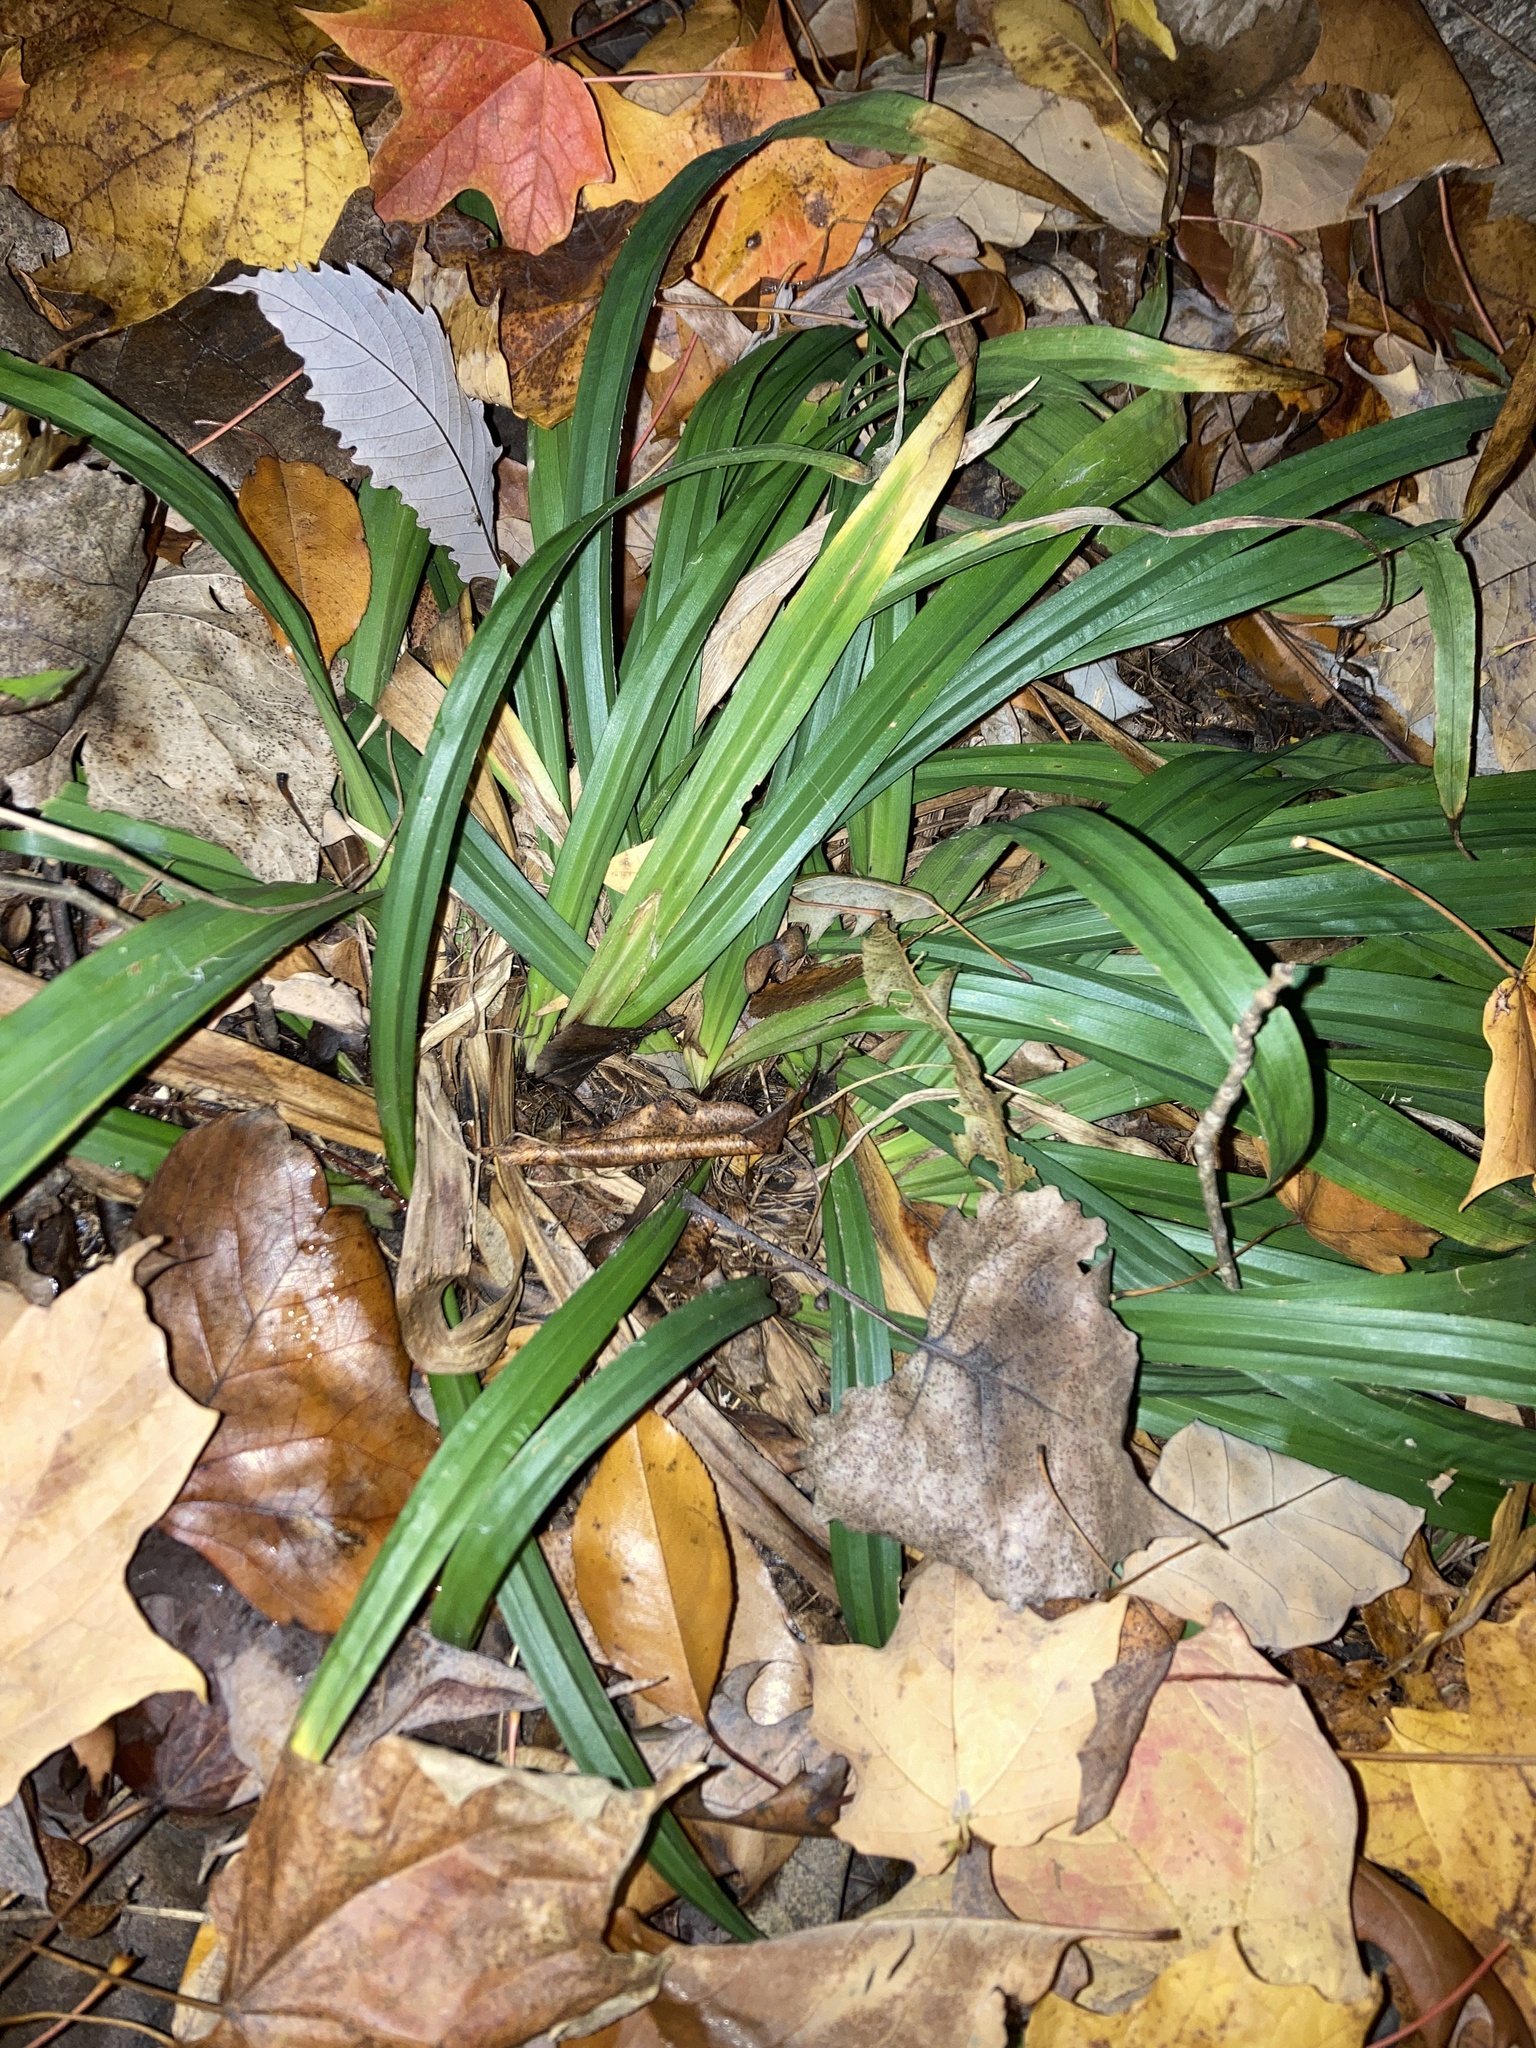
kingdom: Plantae
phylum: Tracheophyta
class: Liliopsida
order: Poales
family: Cyperaceae
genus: Carex
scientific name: Carex albursina
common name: Blunt-scale wood sedge
